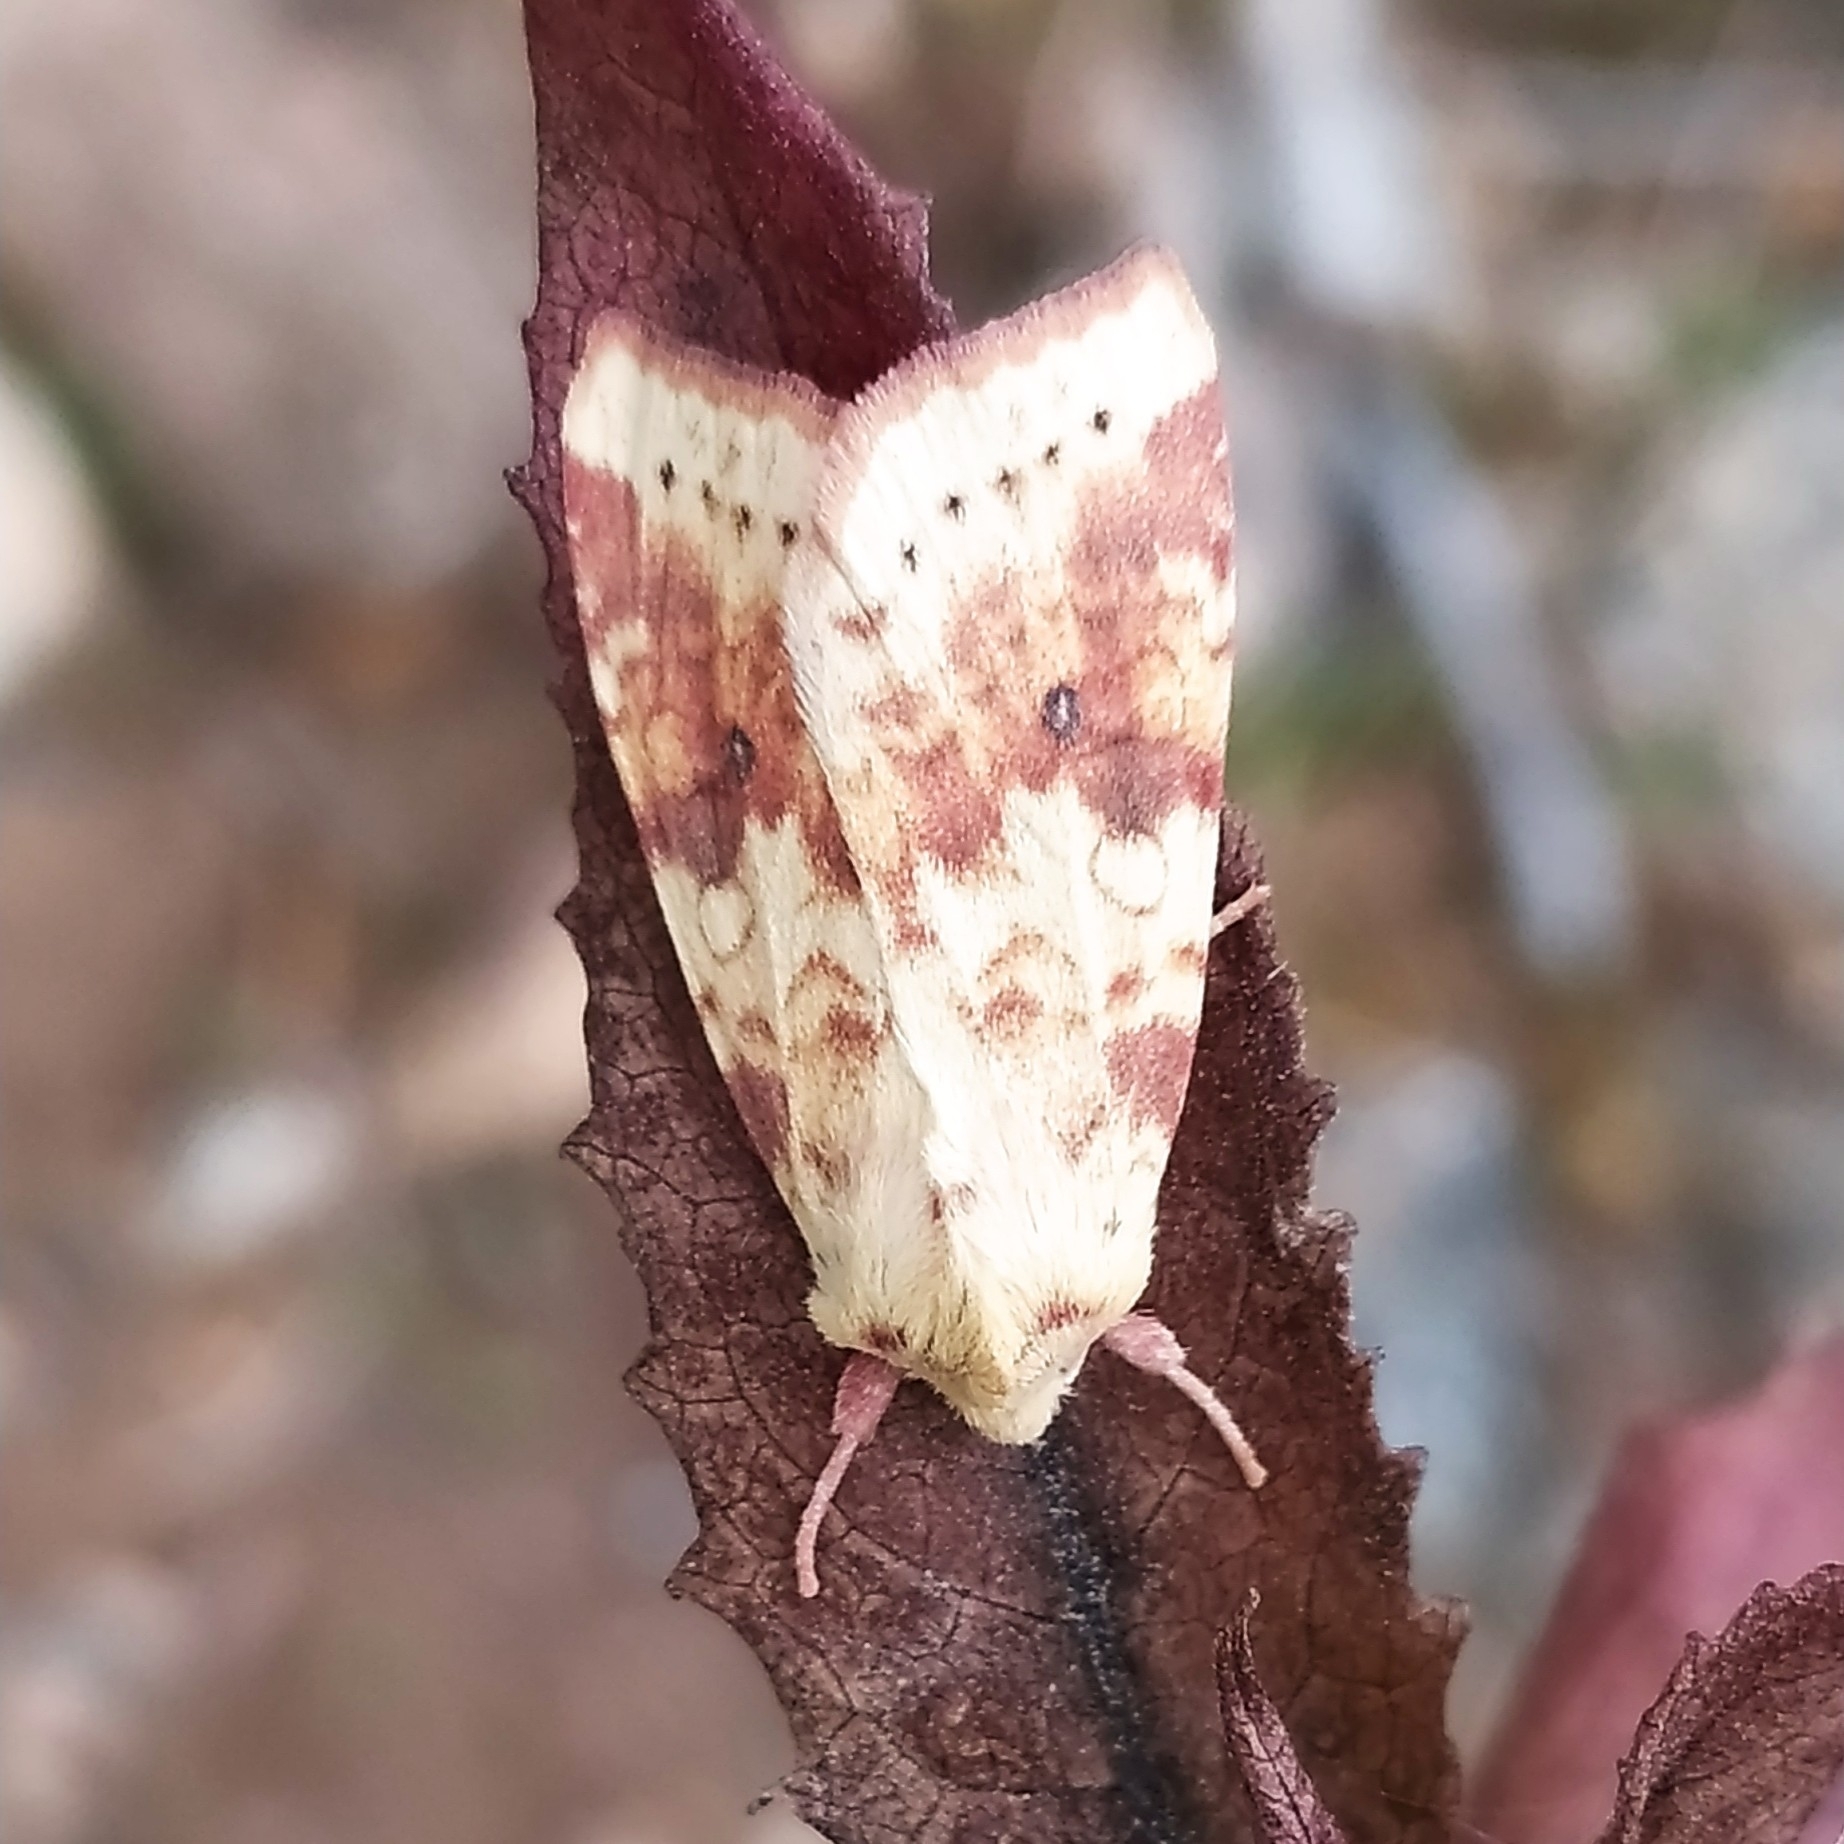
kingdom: Animalia
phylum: Arthropoda
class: Insecta
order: Lepidoptera
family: Noctuidae
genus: Xanthia
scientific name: Xanthia icteritia
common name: The sallow
